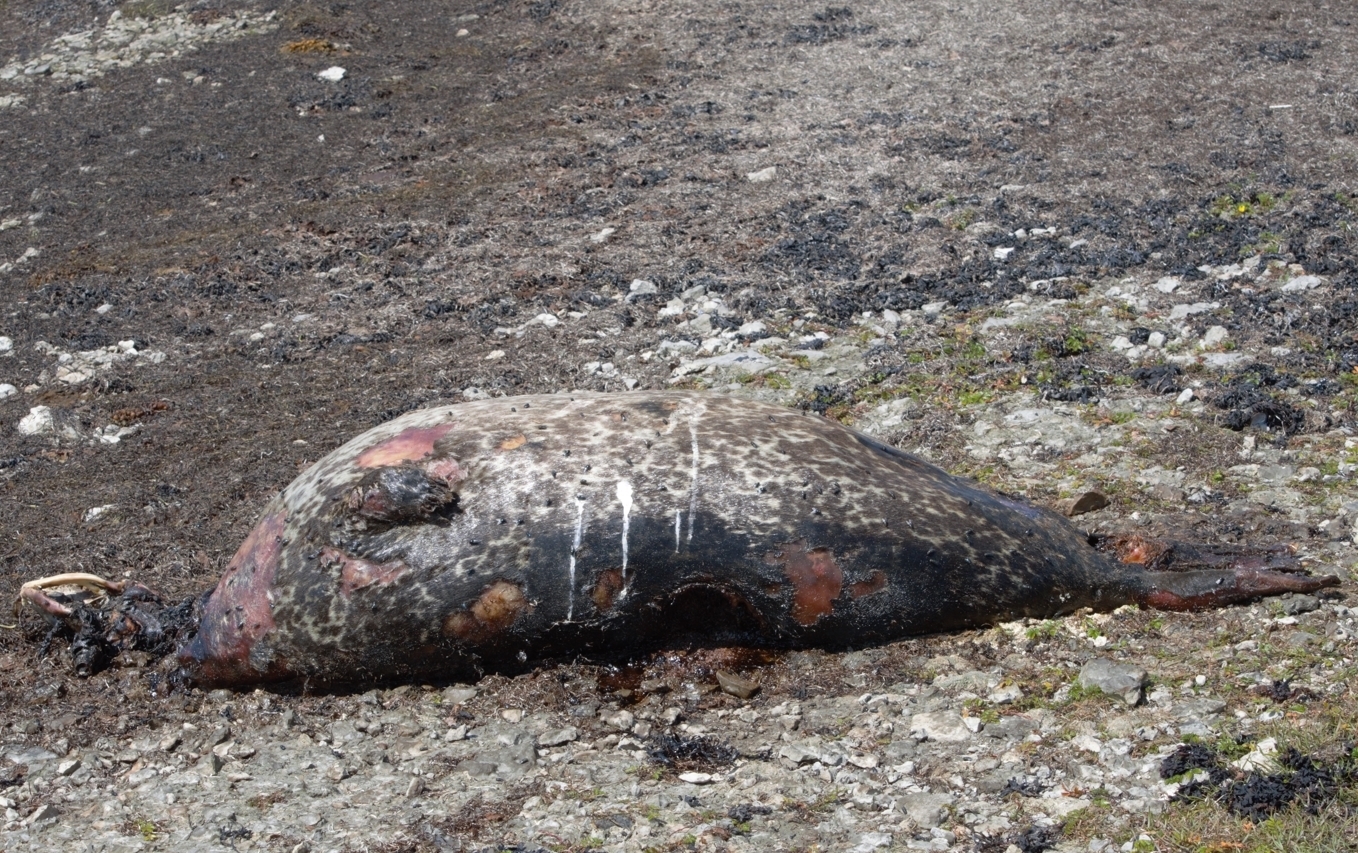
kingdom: Animalia
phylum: Chordata
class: Mammalia
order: Carnivora
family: Phocidae
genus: Phoca
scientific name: Phoca vitulina
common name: Harbor seal
